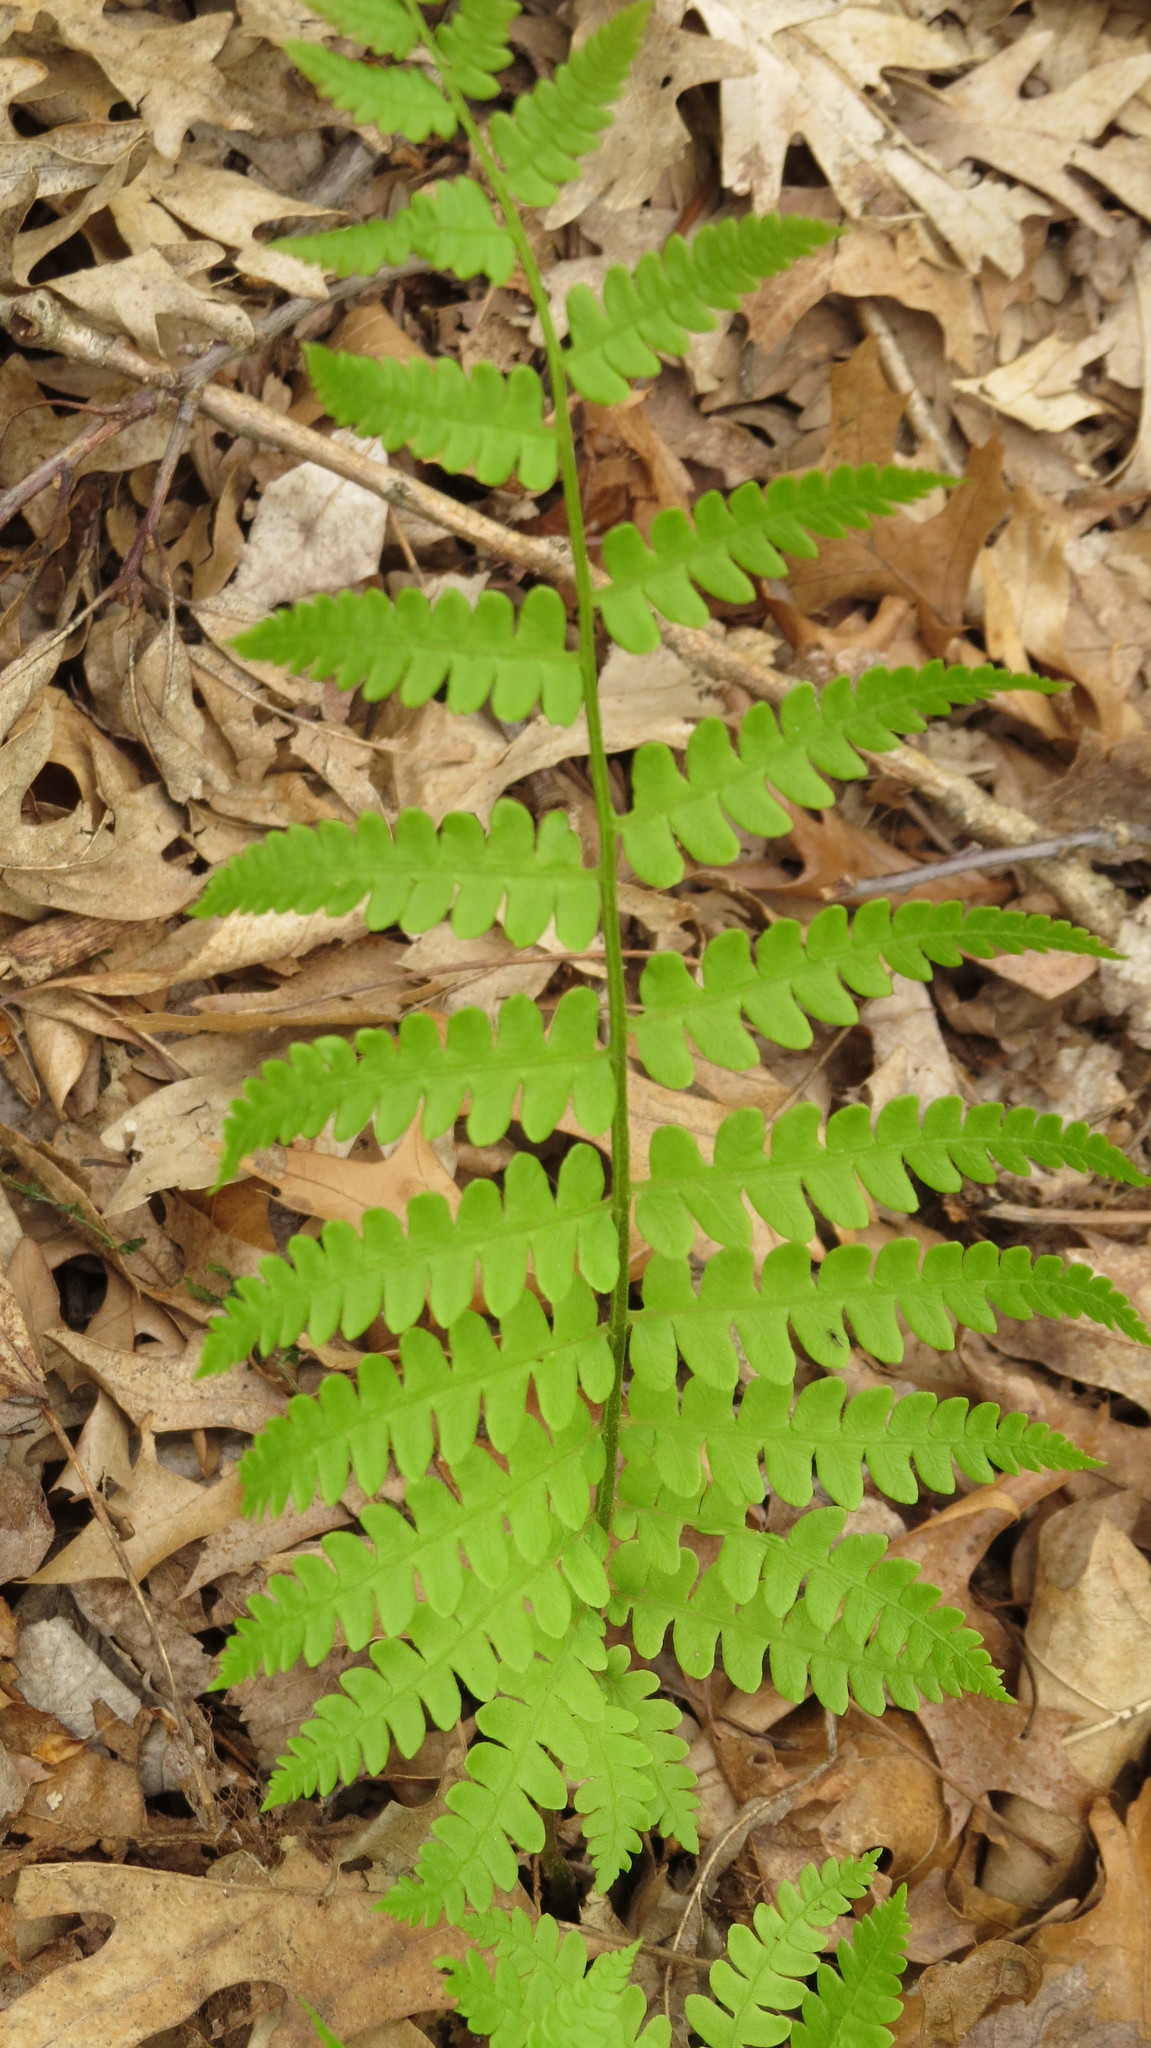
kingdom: Plantae
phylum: Tracheophyta
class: Polypodiopsida
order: Osmundales
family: Osmundaceae
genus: Osmundastrum
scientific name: Osmundastrum cinnamomeum
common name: Cinnamon fern
